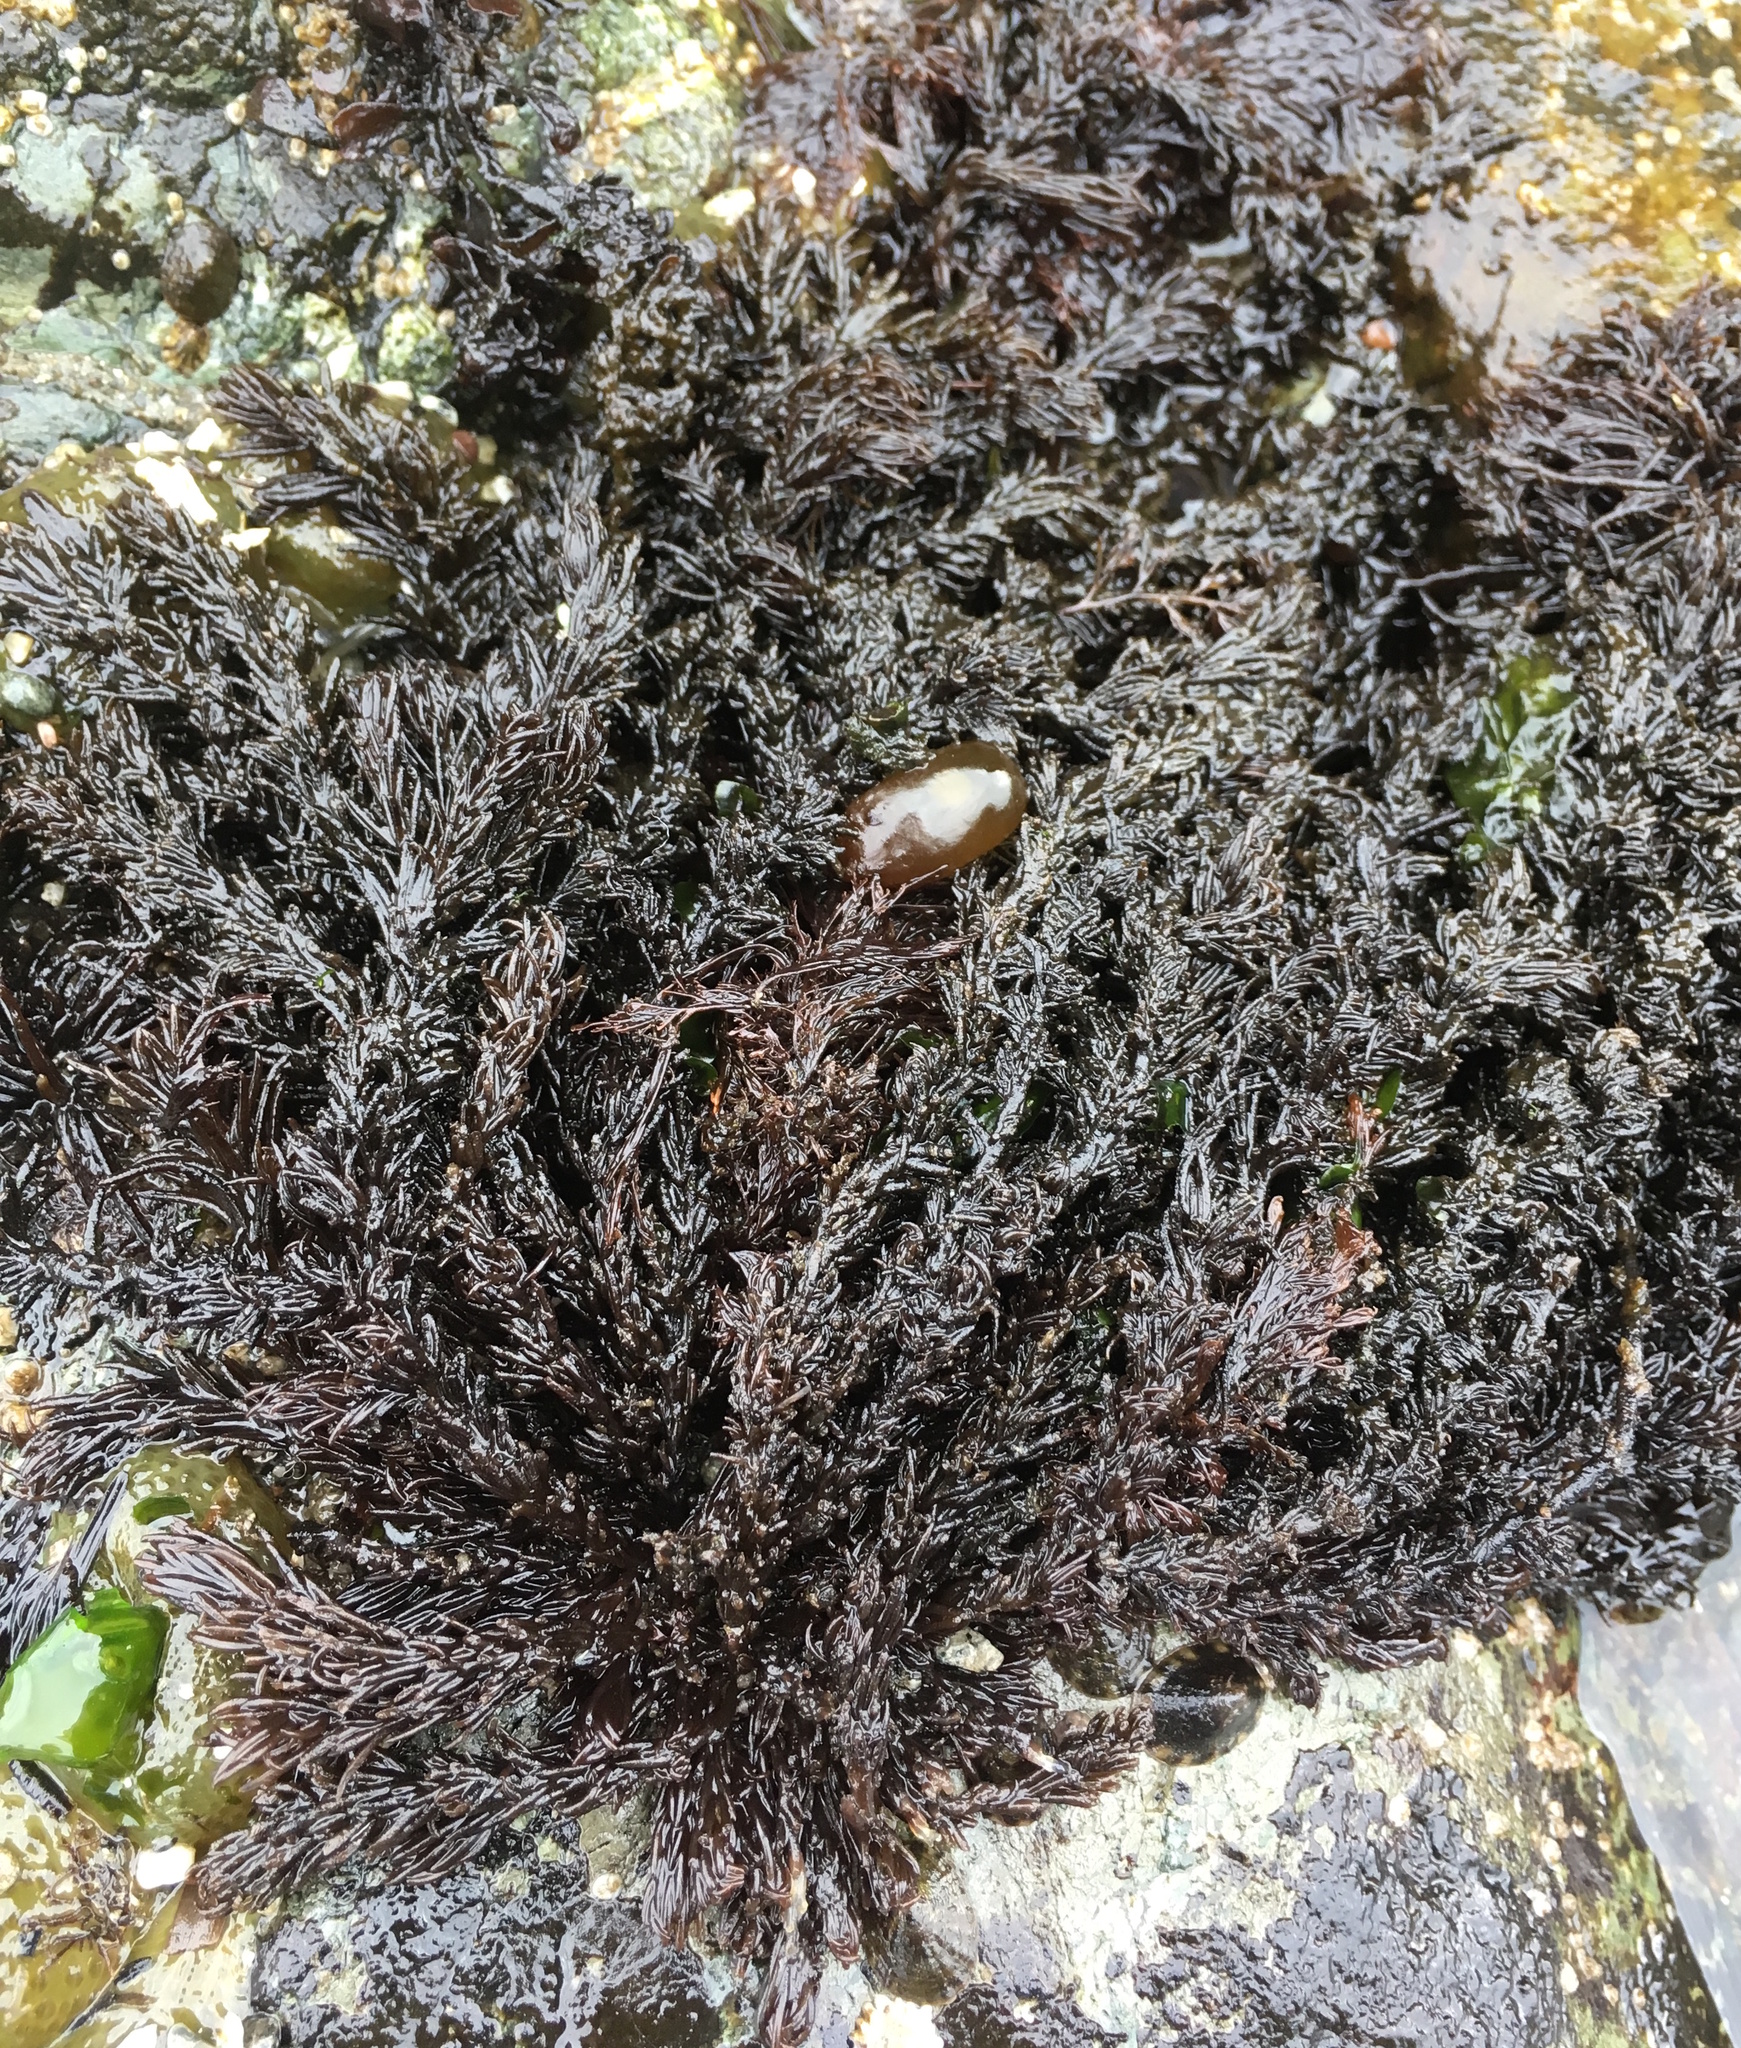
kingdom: Plantae
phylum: Rhodophyta
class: Florideophyceae
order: Ceramiales
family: Rhodomelaceae
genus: Neorhodomela
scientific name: Neorhodomela larix
